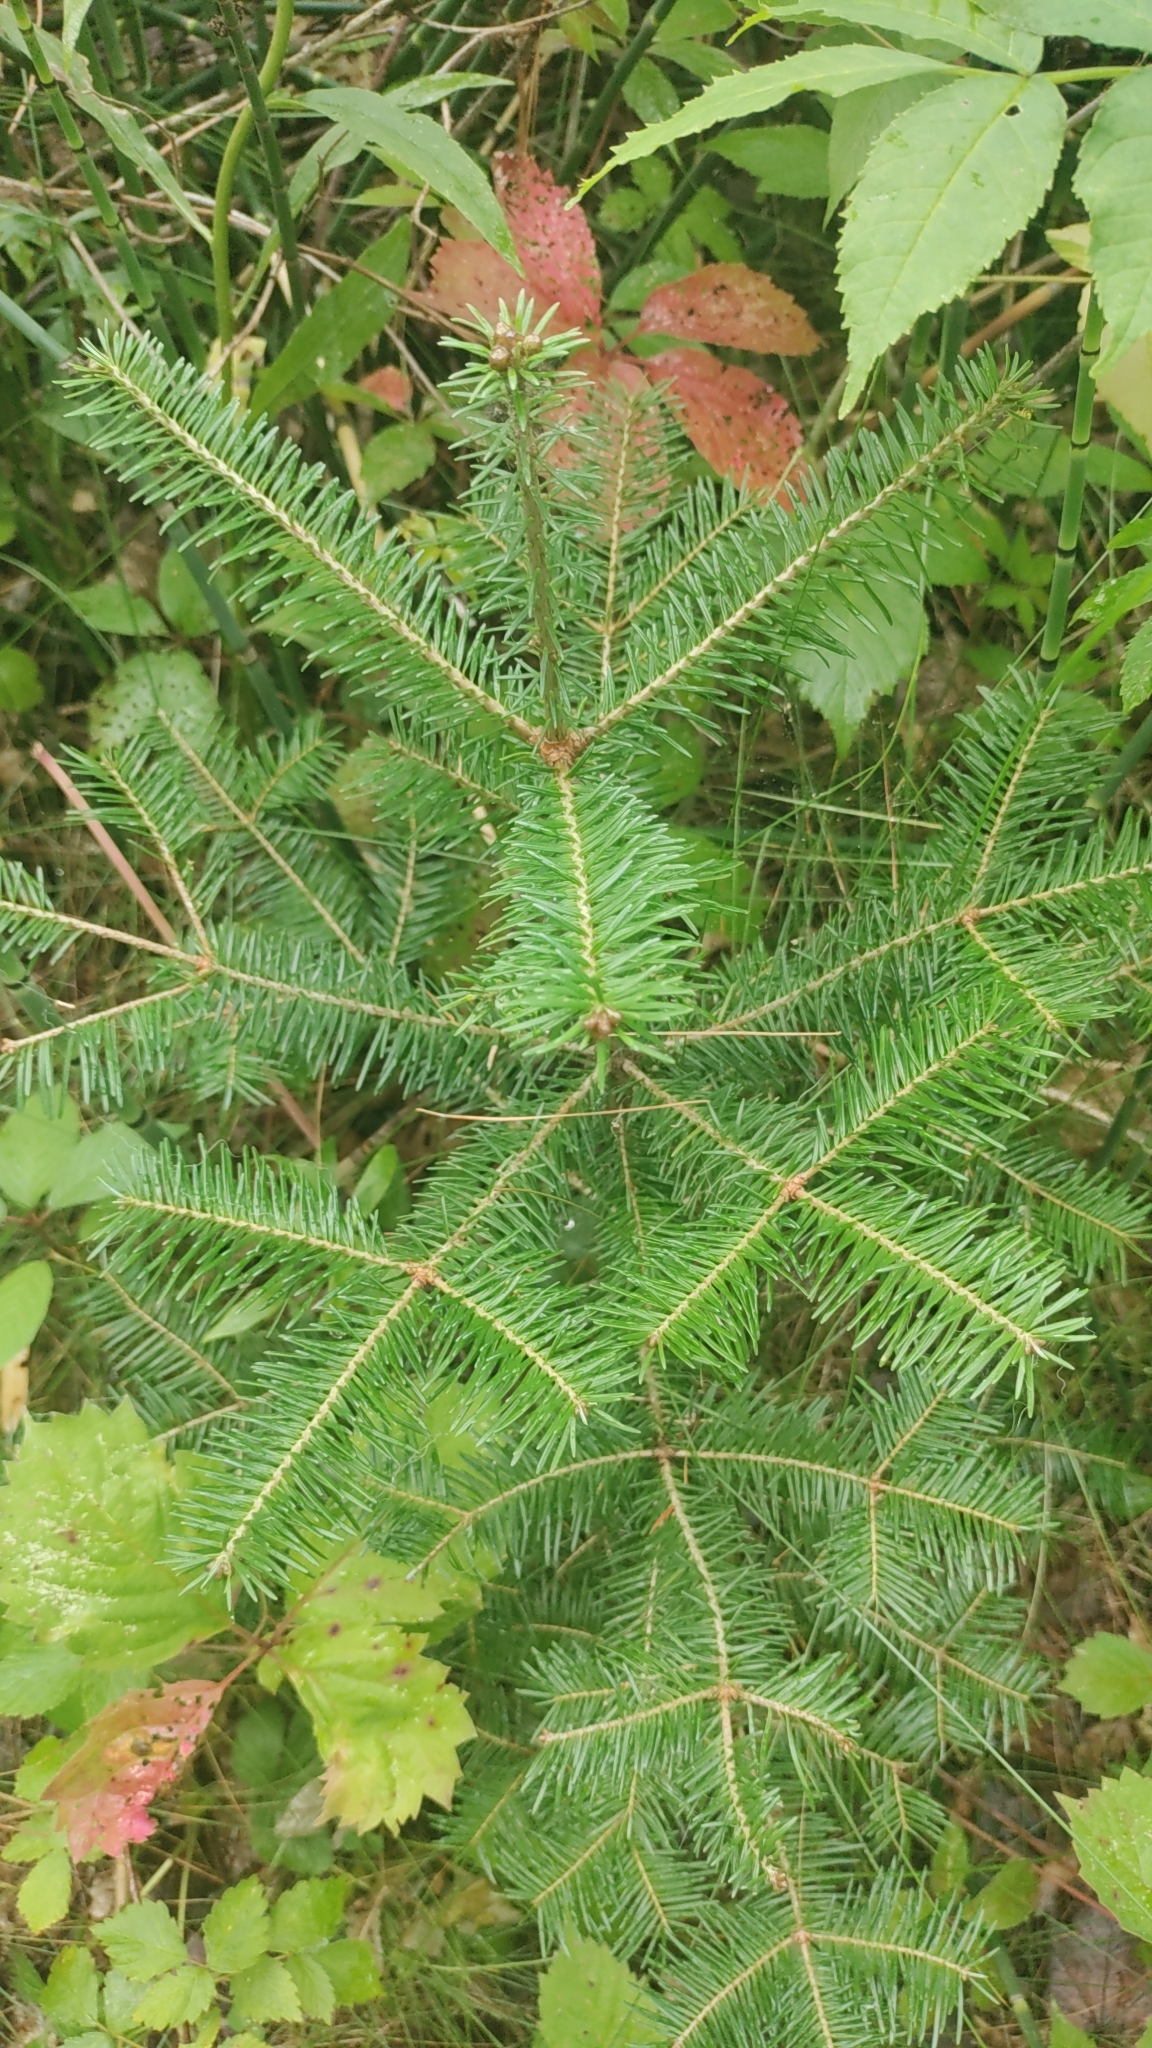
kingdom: Plantae
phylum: Tracheophyta
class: Pinopsida
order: Pinales
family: Pinaceae
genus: Abies
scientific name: Abies balsamea
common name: Balsam fir
